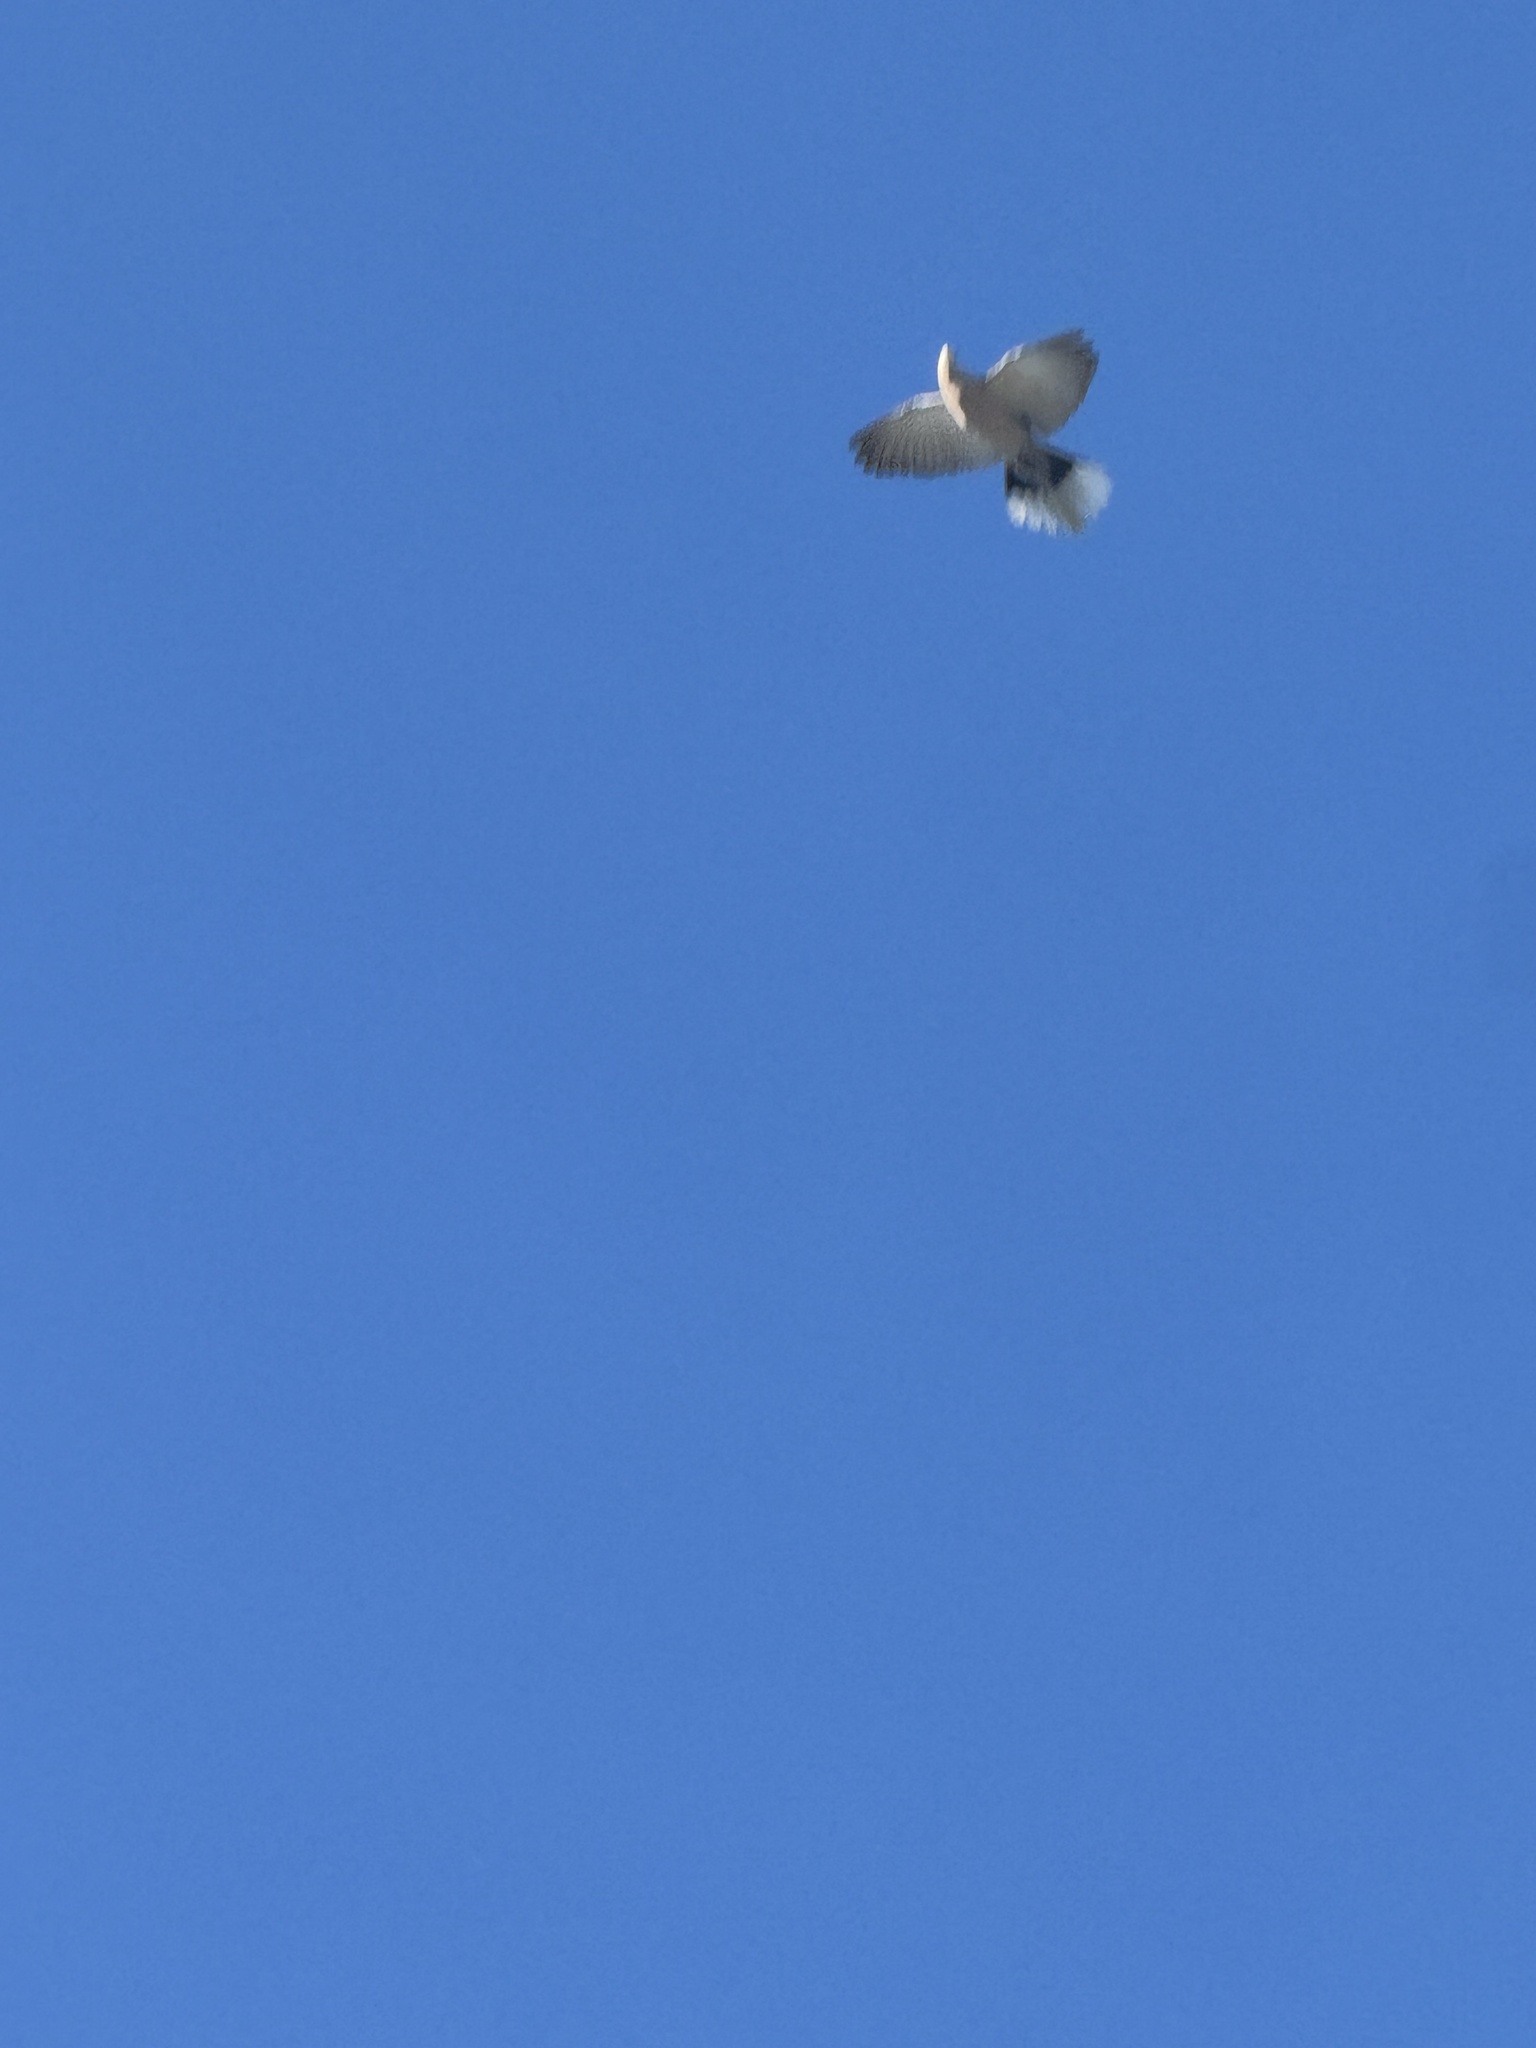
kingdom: Animalia
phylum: Chordata
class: Aves
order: Columbiformes
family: Columbidae
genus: Streptopelia
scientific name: Streptopelia decaocto
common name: Eurasian collared dove
